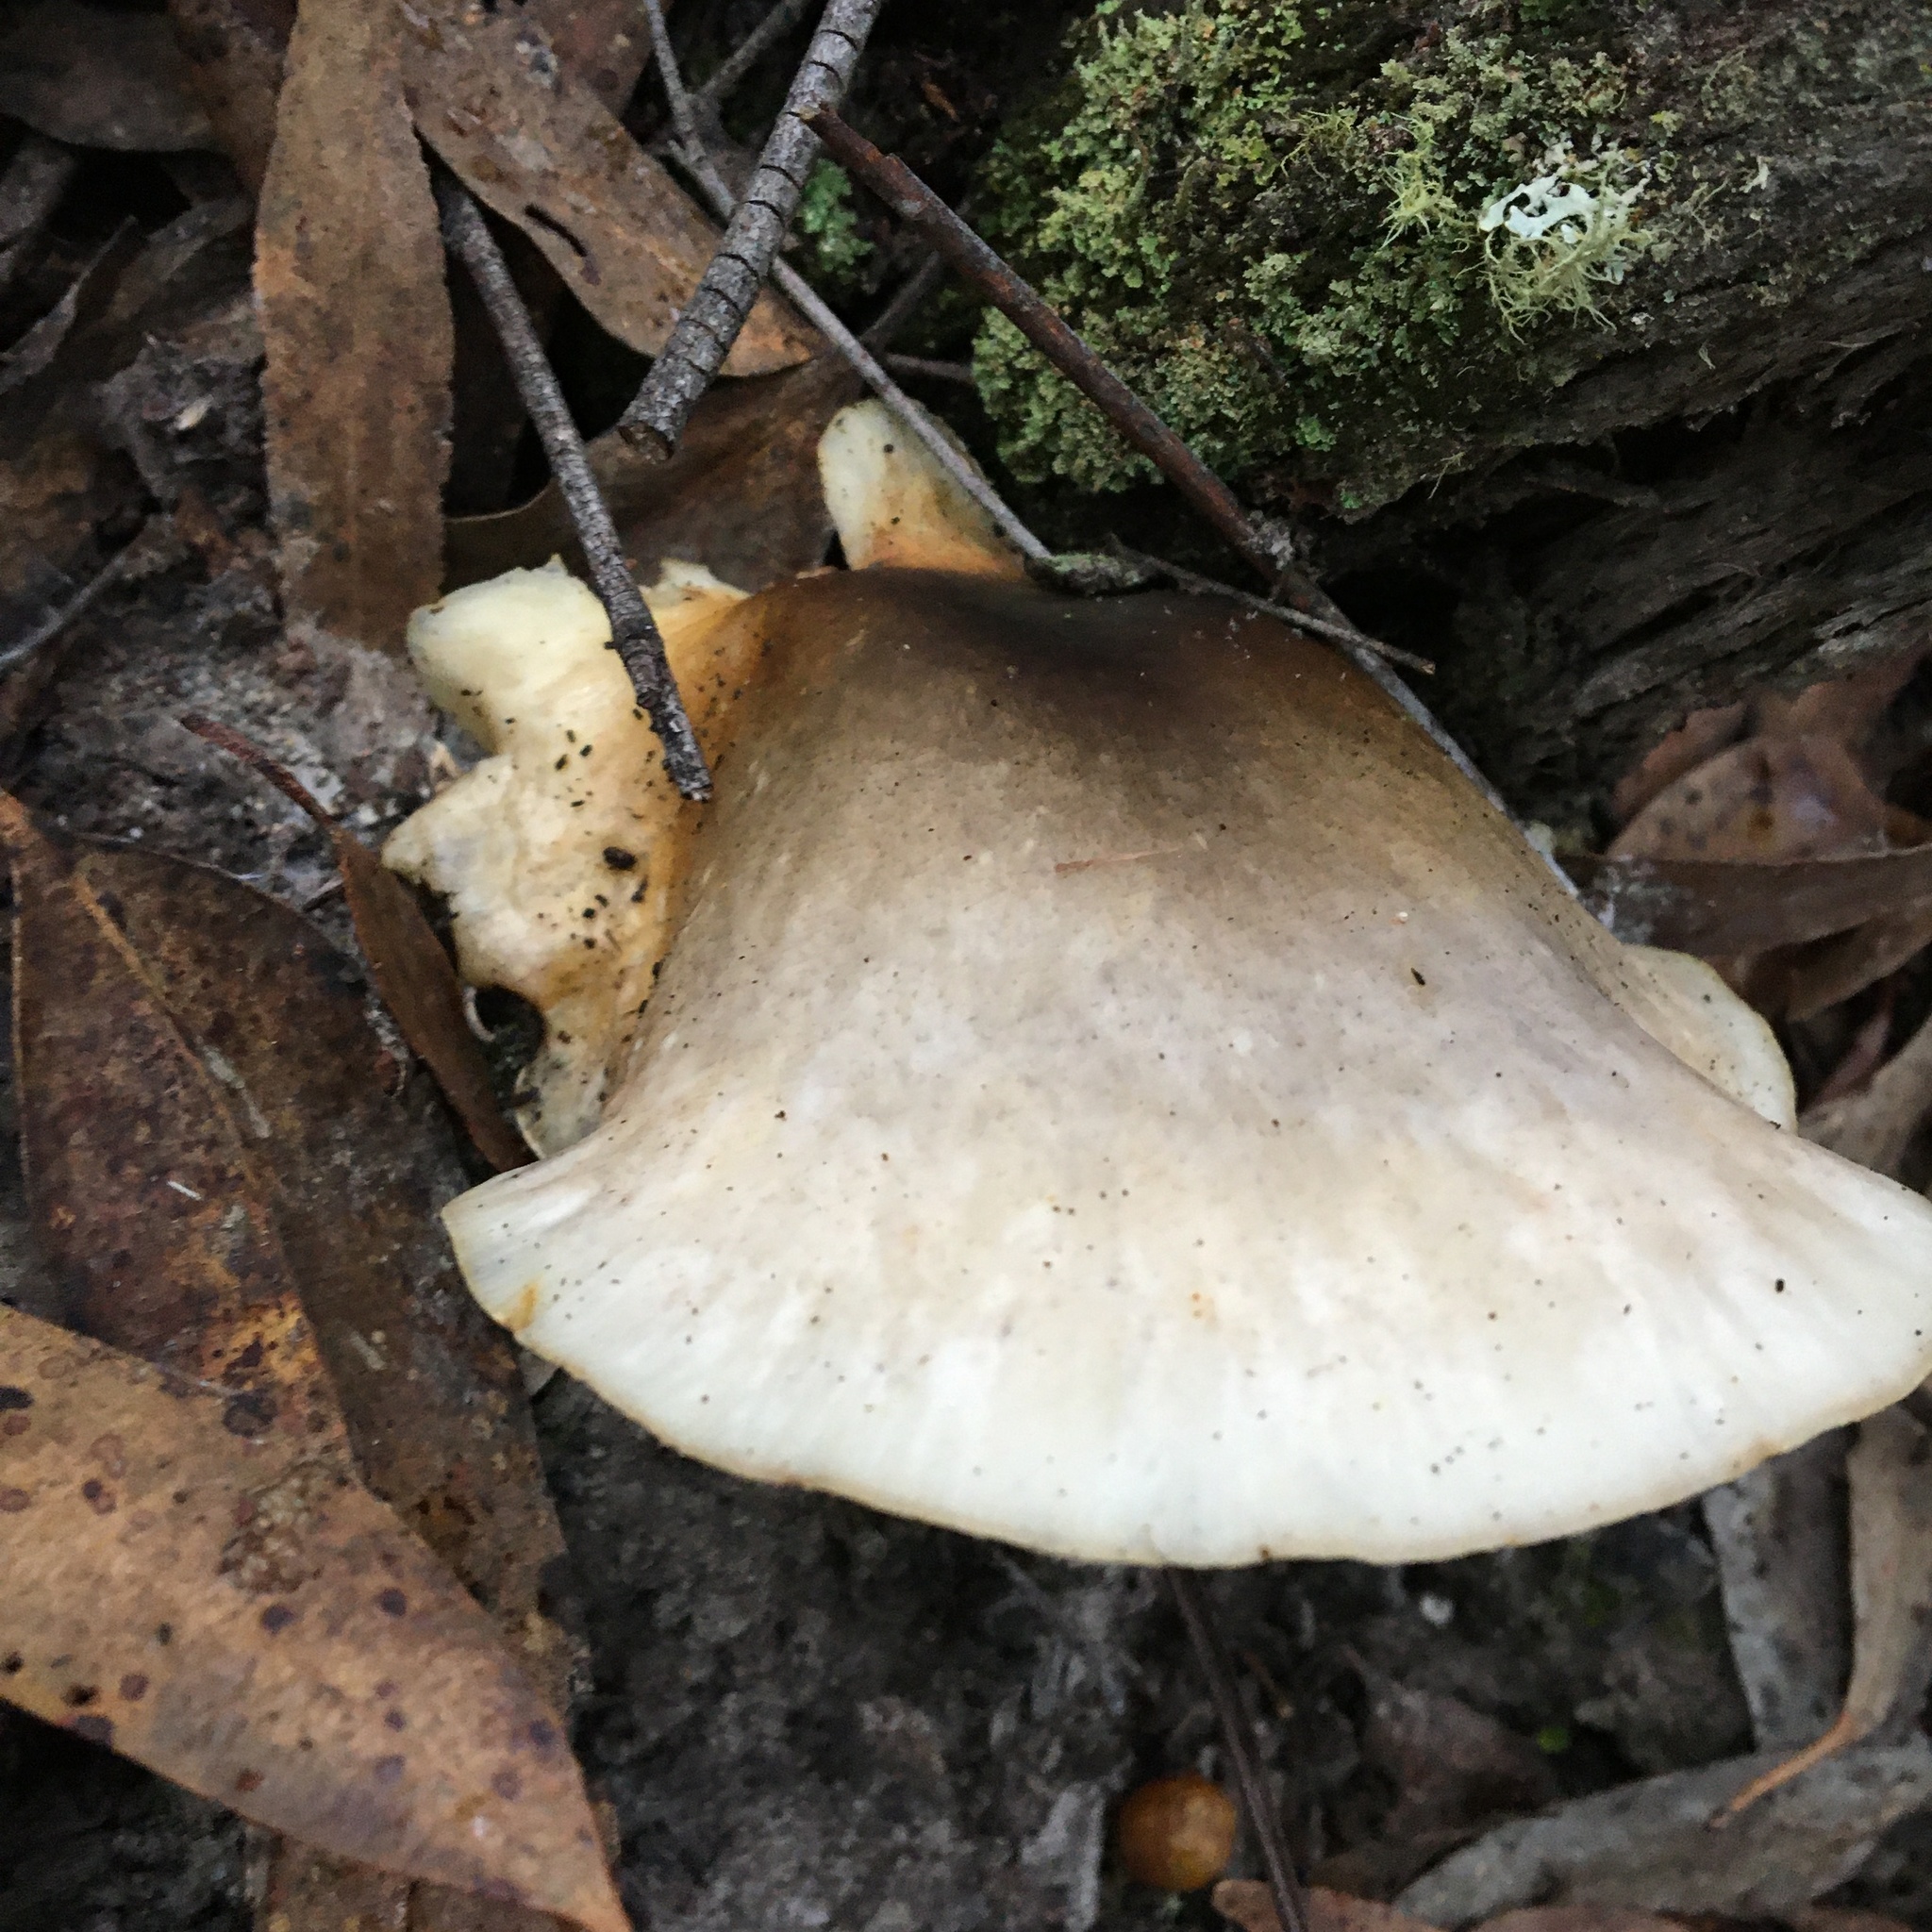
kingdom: Fungi
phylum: Basidiomycota
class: Agaricomycetes
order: Agaricales
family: Omphalotaceae
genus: Omphalotus
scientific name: Omphalotus nidiformis
